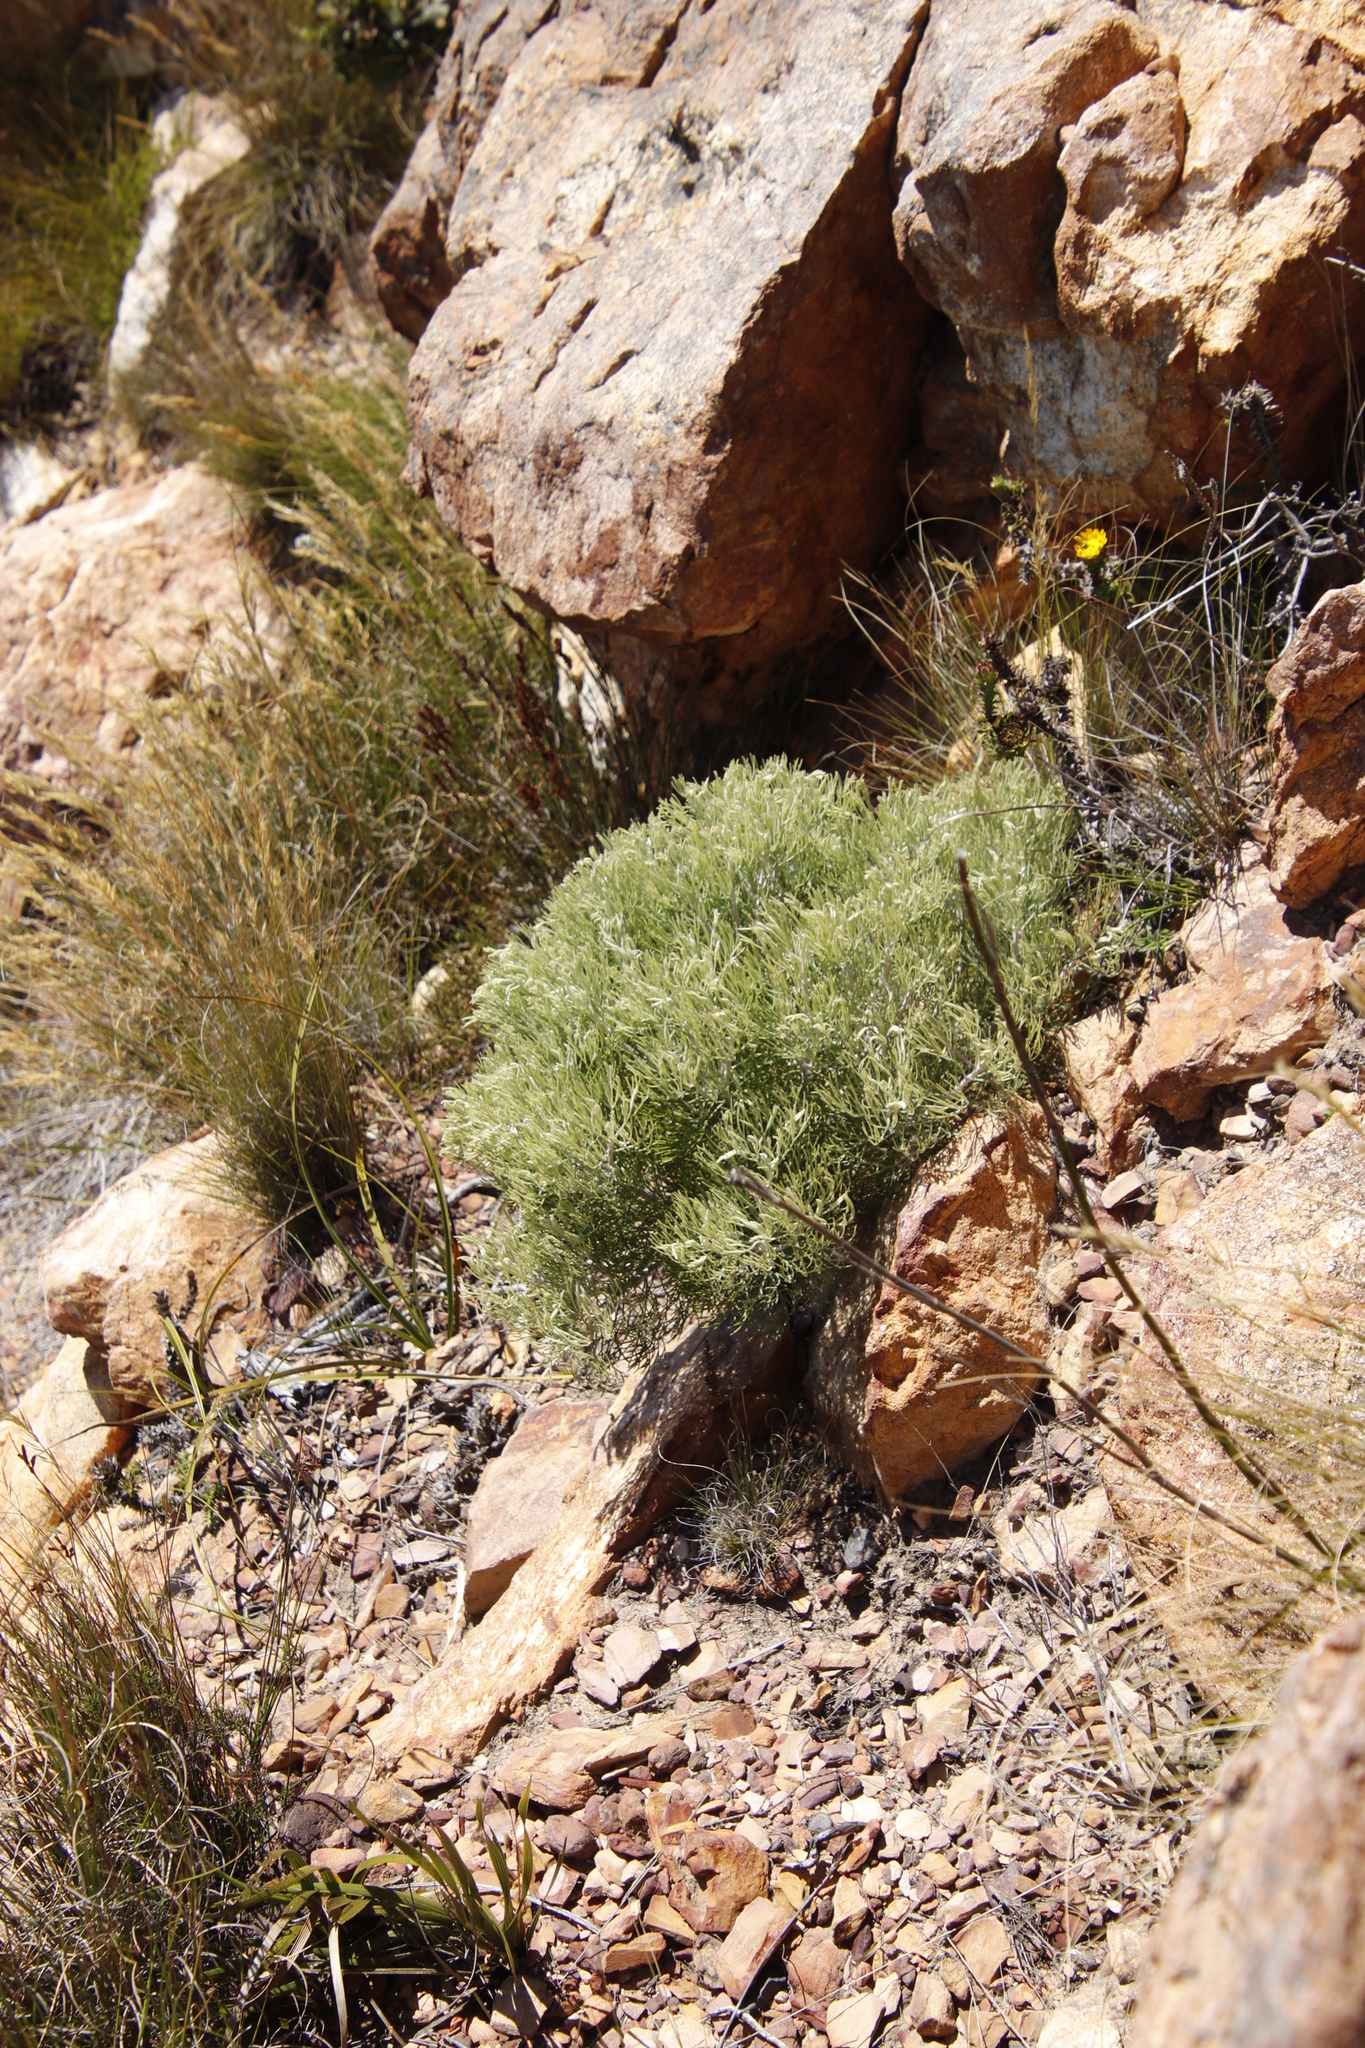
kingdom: Plantae
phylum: Tracheophyta
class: Magnoliopsida
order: Proteales
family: Proteaceae
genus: Paranomus
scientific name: Paranomus spicatus
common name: Kogelberg sceptre
